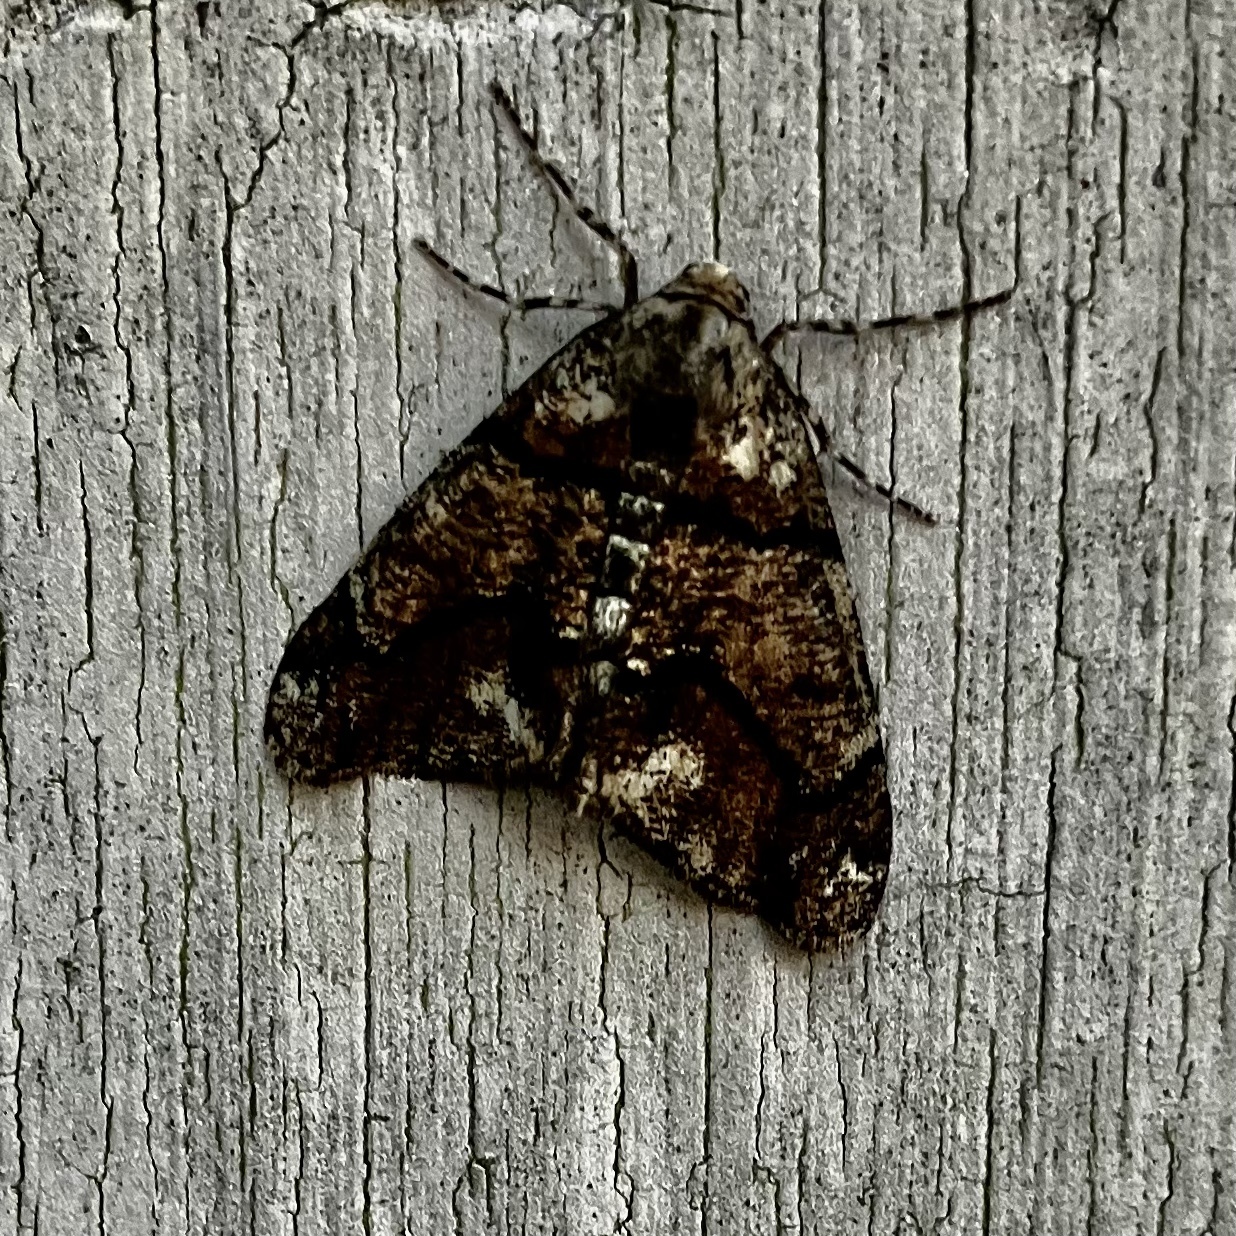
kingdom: Animalia
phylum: Arthropoda
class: Insecta
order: Lepidoptera
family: Geometridae
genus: Gabriola
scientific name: Gabriola dyari
